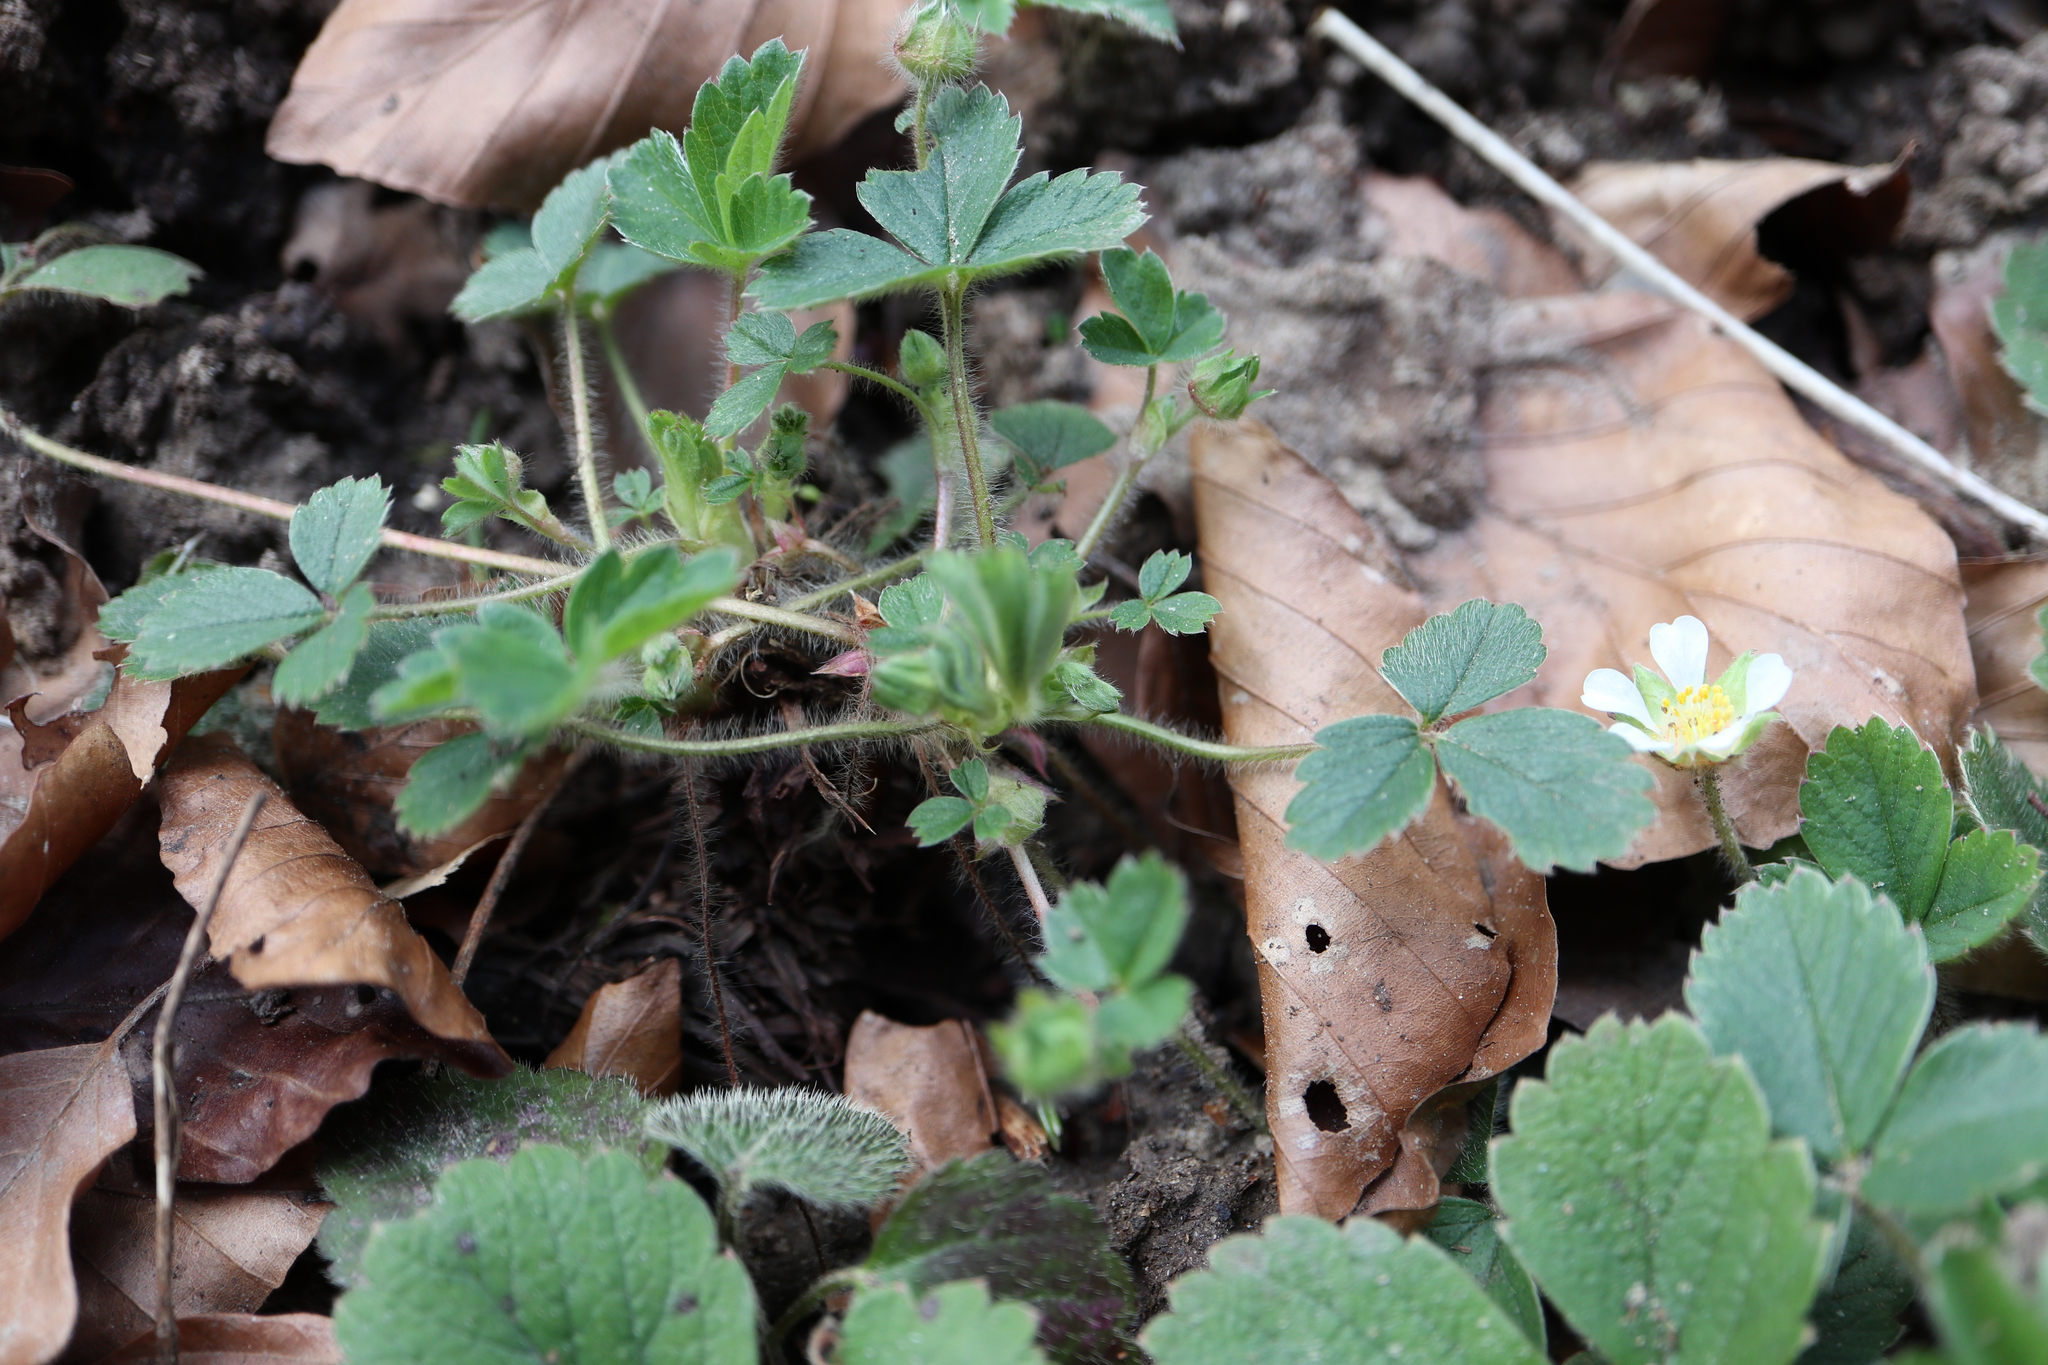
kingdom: Plantae
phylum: Tracheophyta
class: Magnoliopsida
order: Rosales
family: Rosaceae
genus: Potentilla
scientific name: Potentilla sterilis
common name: Barren strawberry
